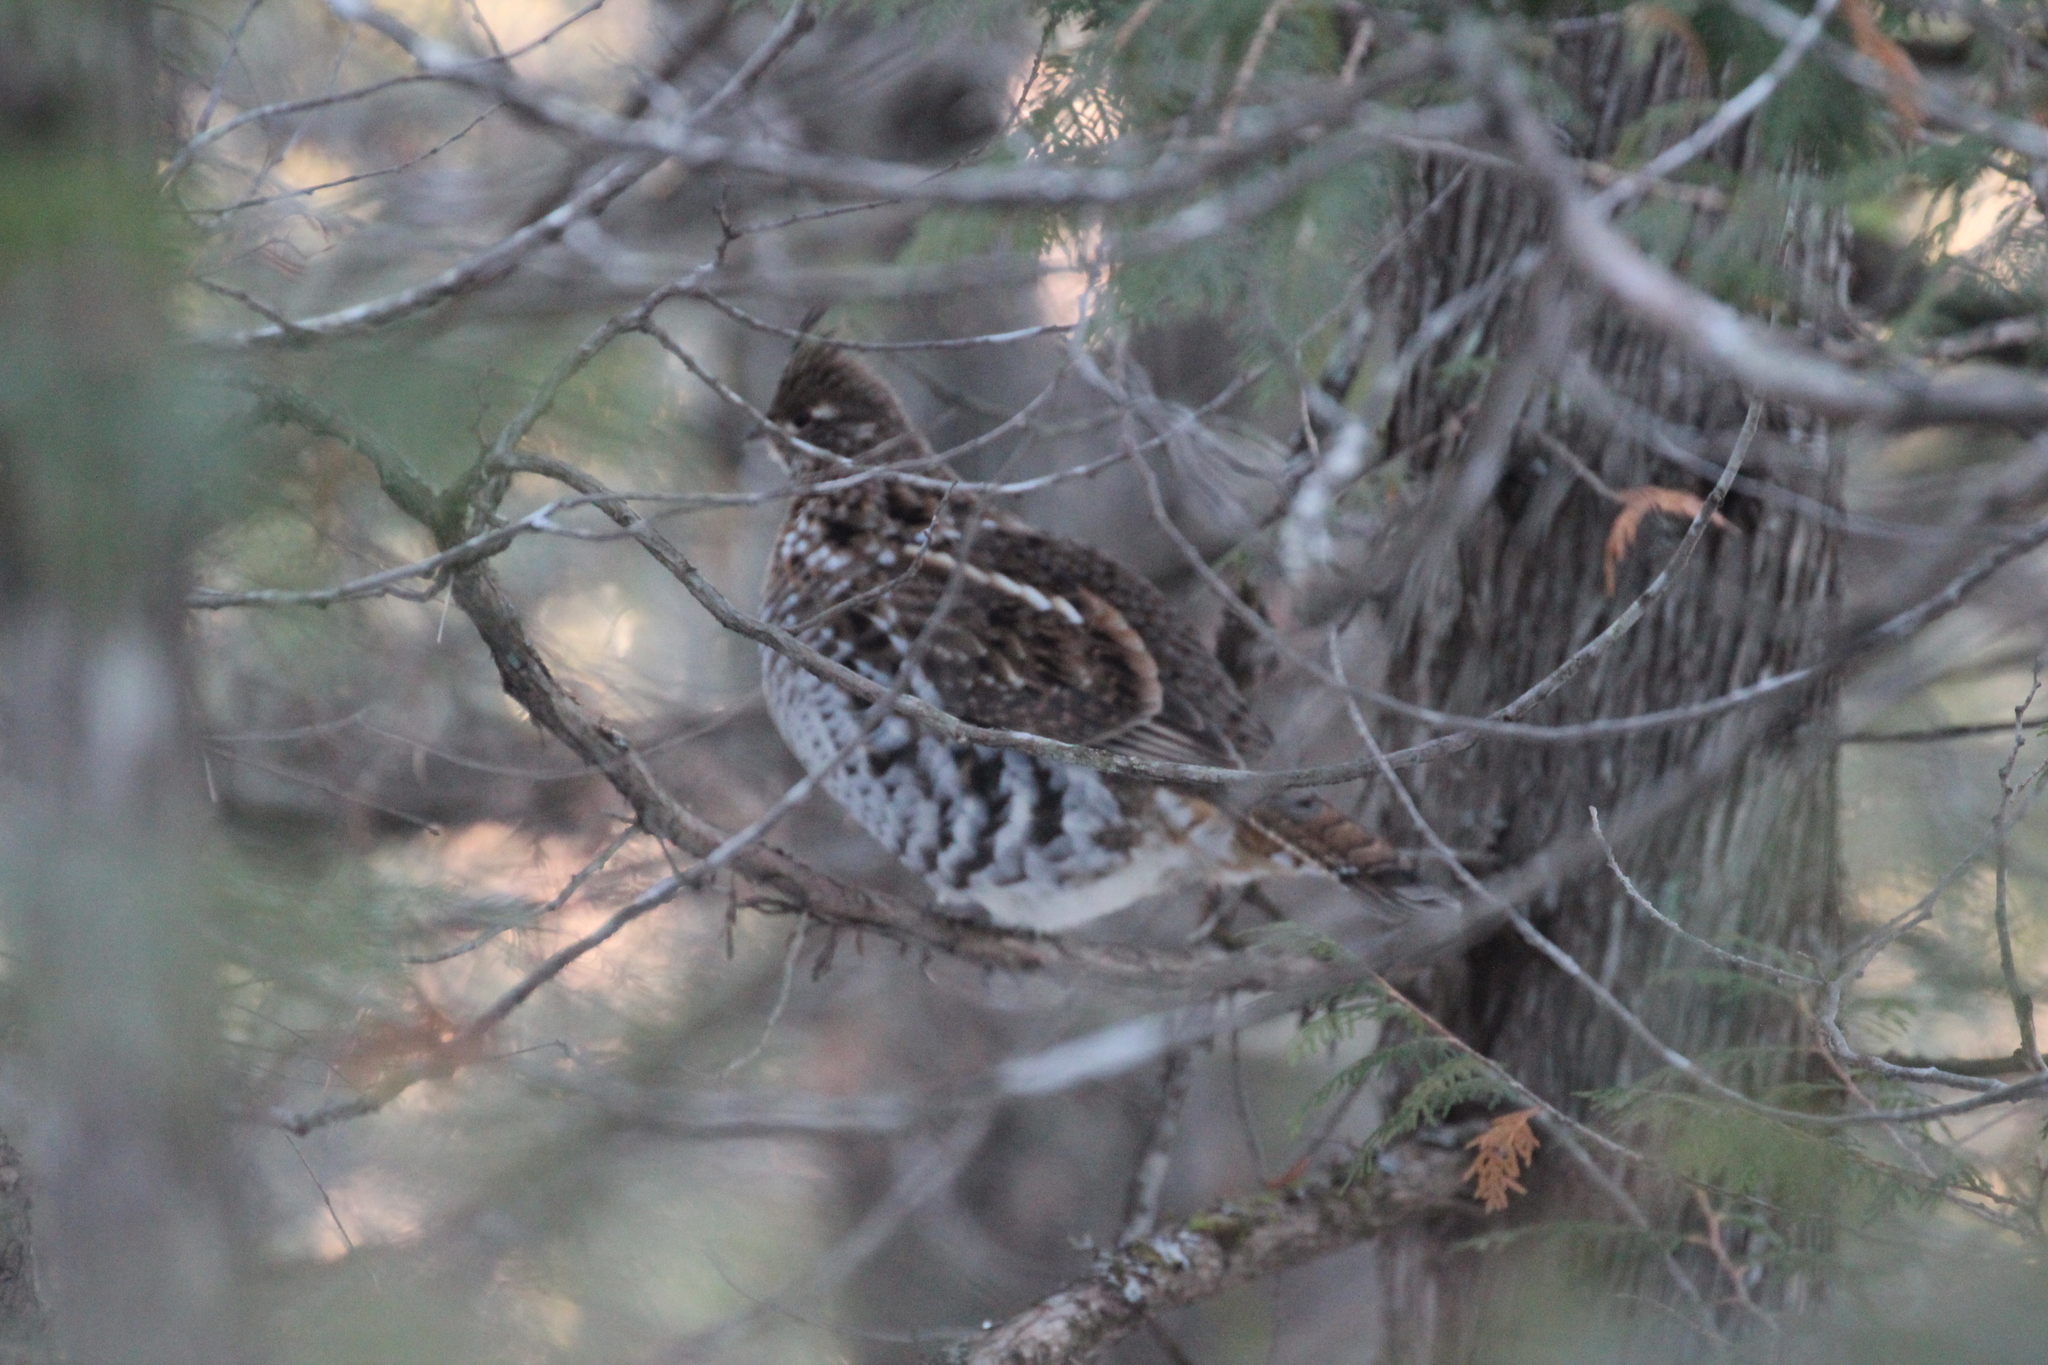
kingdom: Animalia
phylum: Chordata
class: Aves
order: Galliformes
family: Phasianidae
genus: Bonasa
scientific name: Bonasa umbellus
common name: Ruffed grouse
